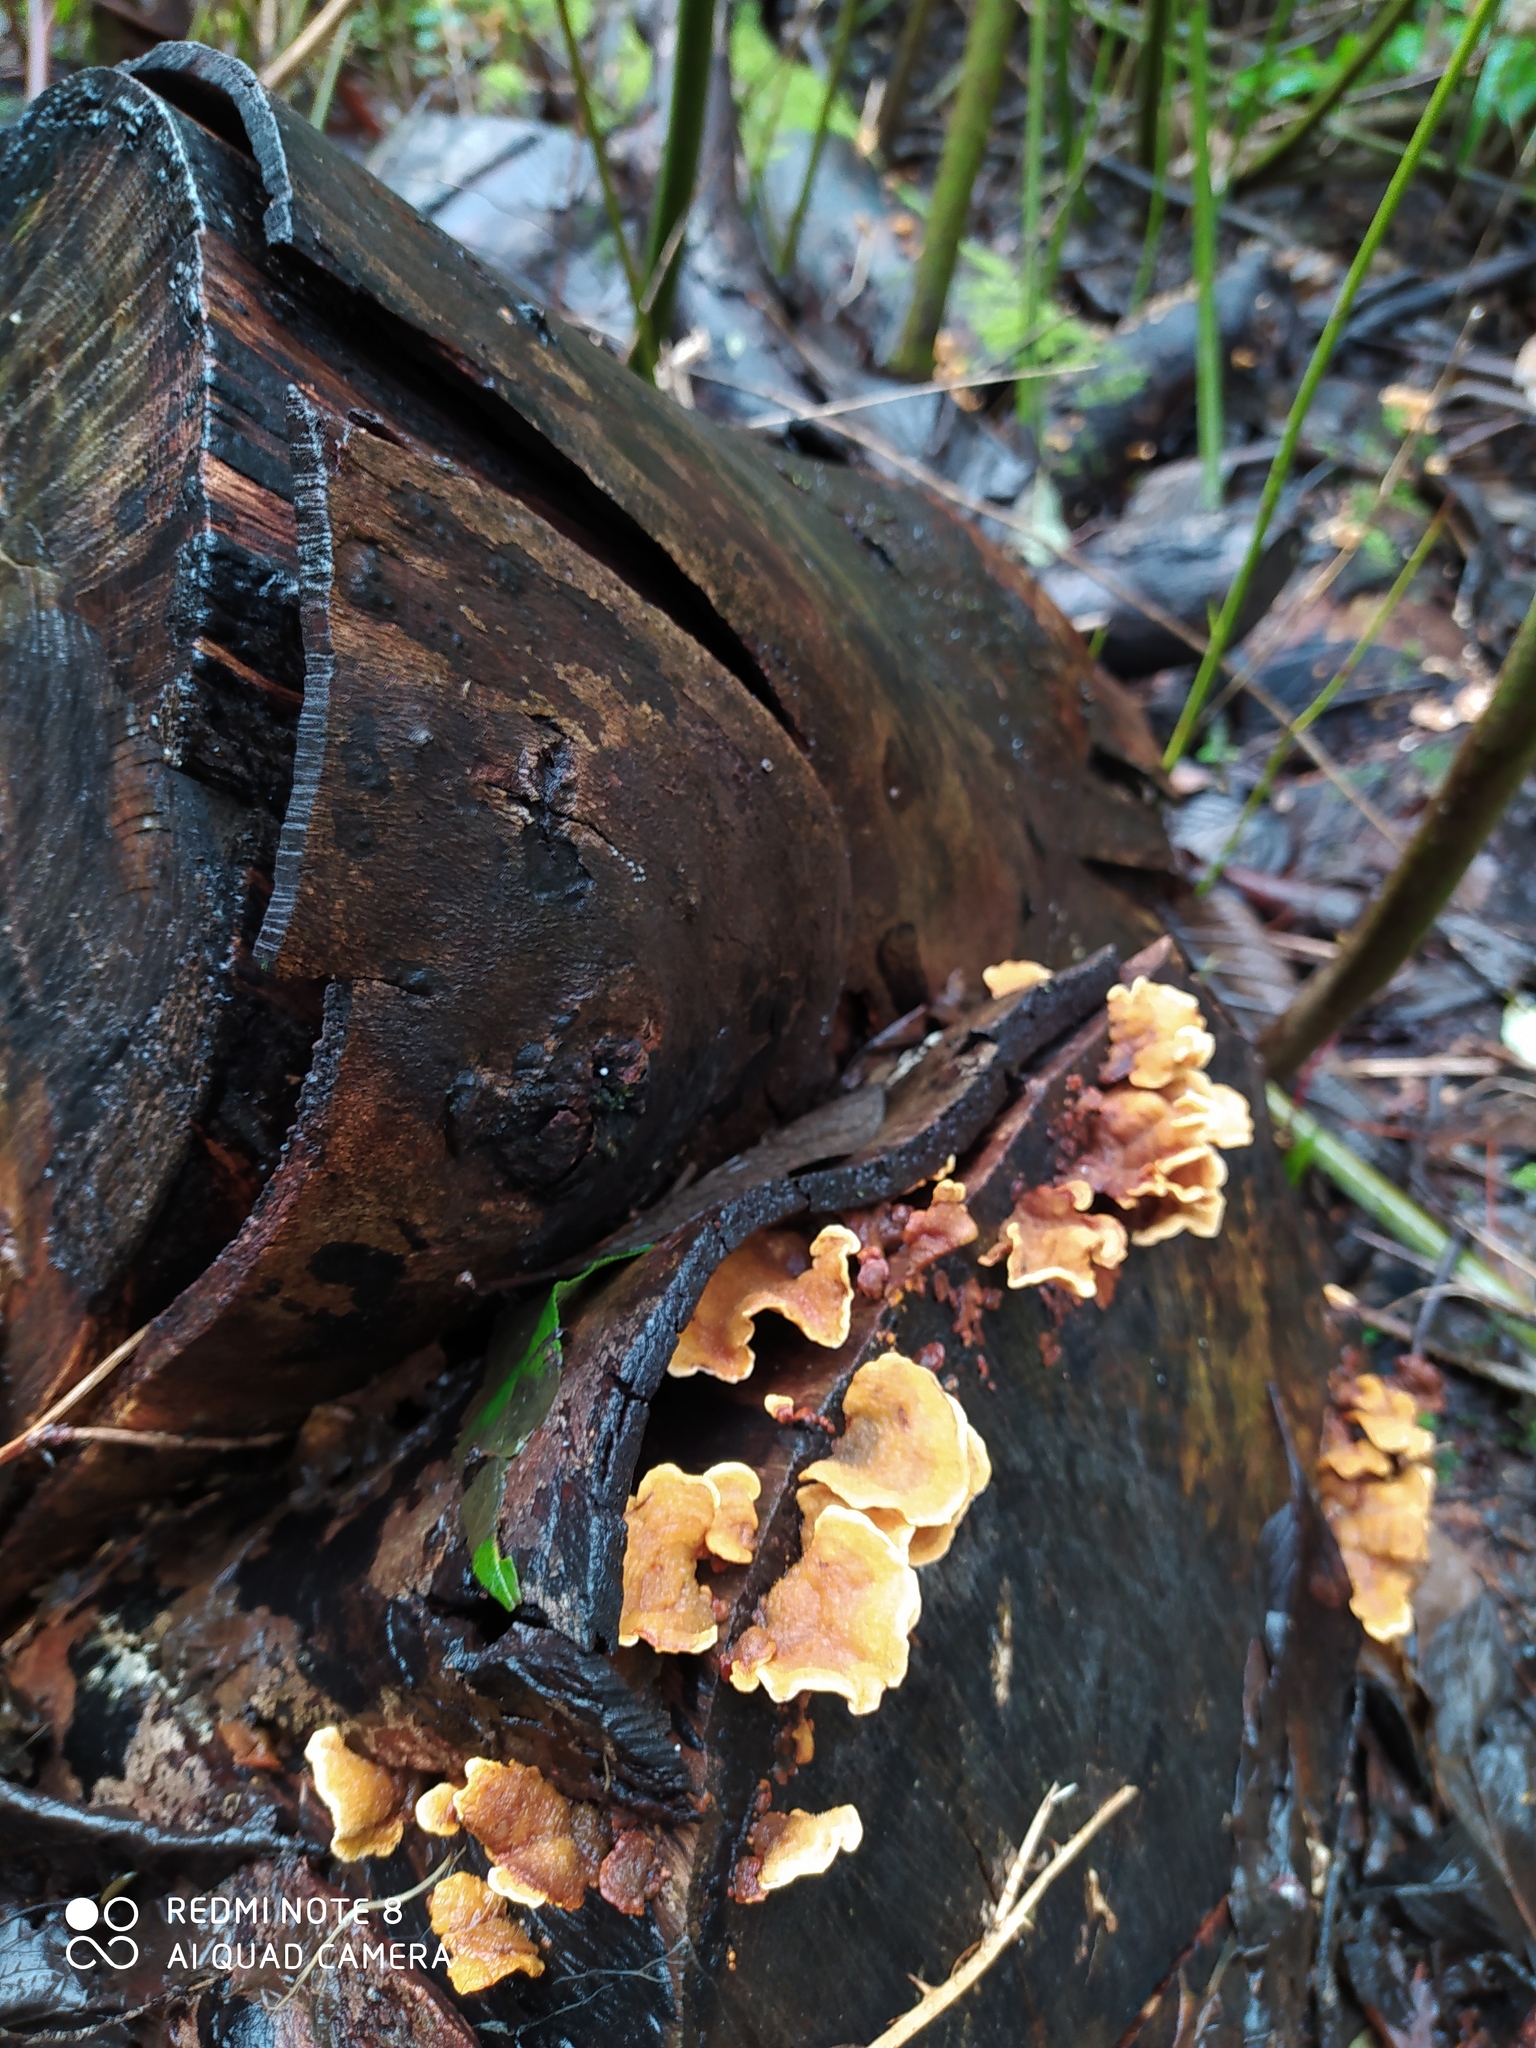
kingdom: Fungi
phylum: Basidiomycota
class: Agaricomycetes
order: Russulales
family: Stereaceae
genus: Stereum
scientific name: Stereum hirsutum
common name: Hairy curtain crust
